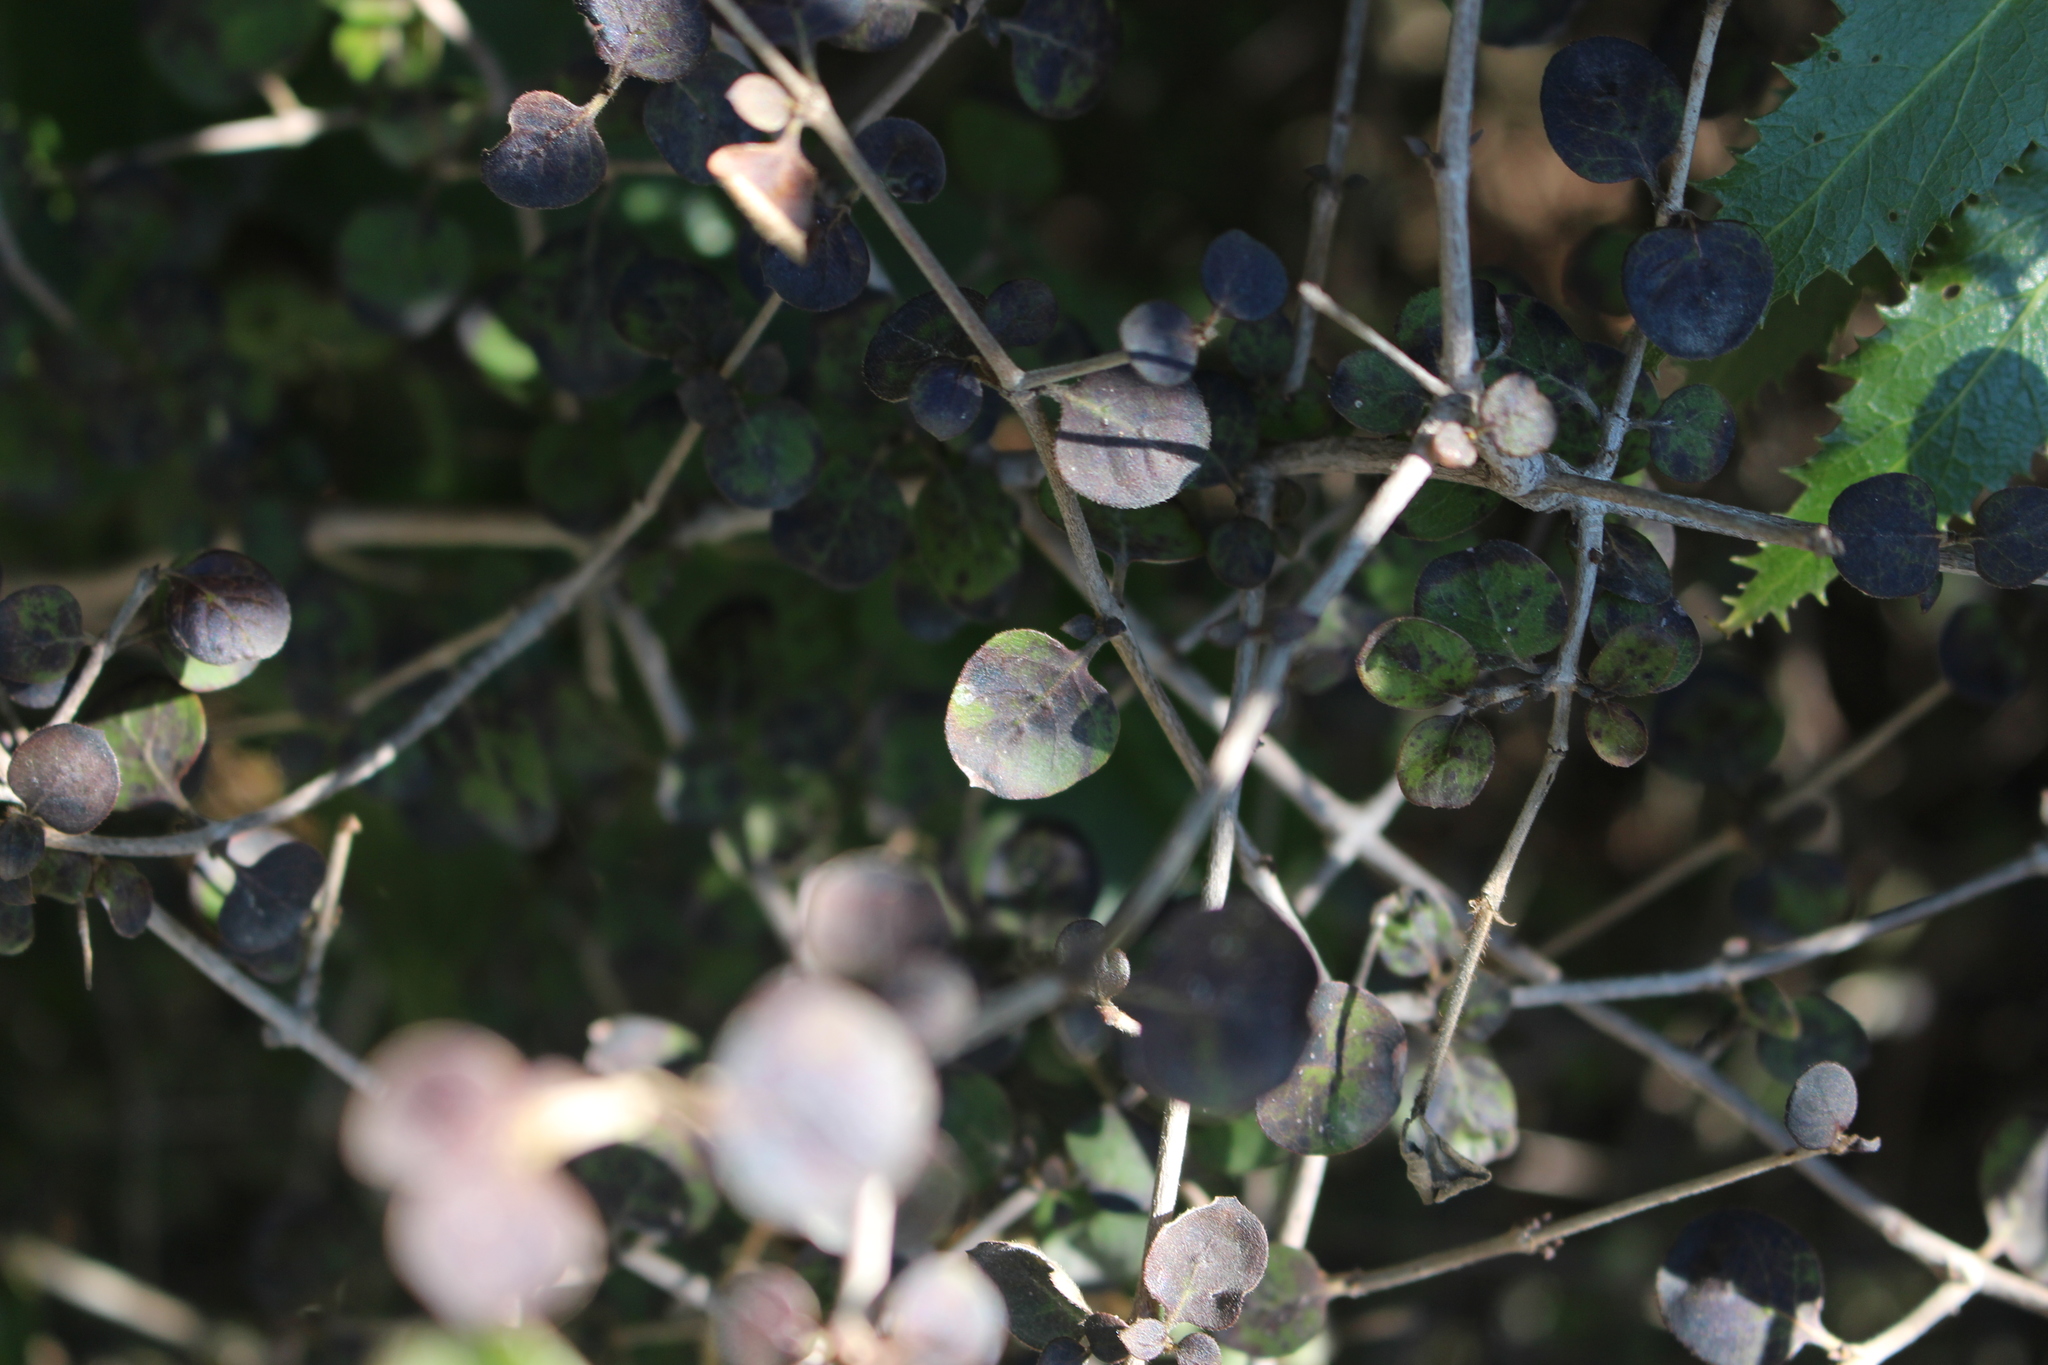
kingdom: Plantae
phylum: Tracheophyta
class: Magnoliopsida
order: Gentianales
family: Rubiaceae
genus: Coprosma
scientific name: Coprosma rotundifolia
